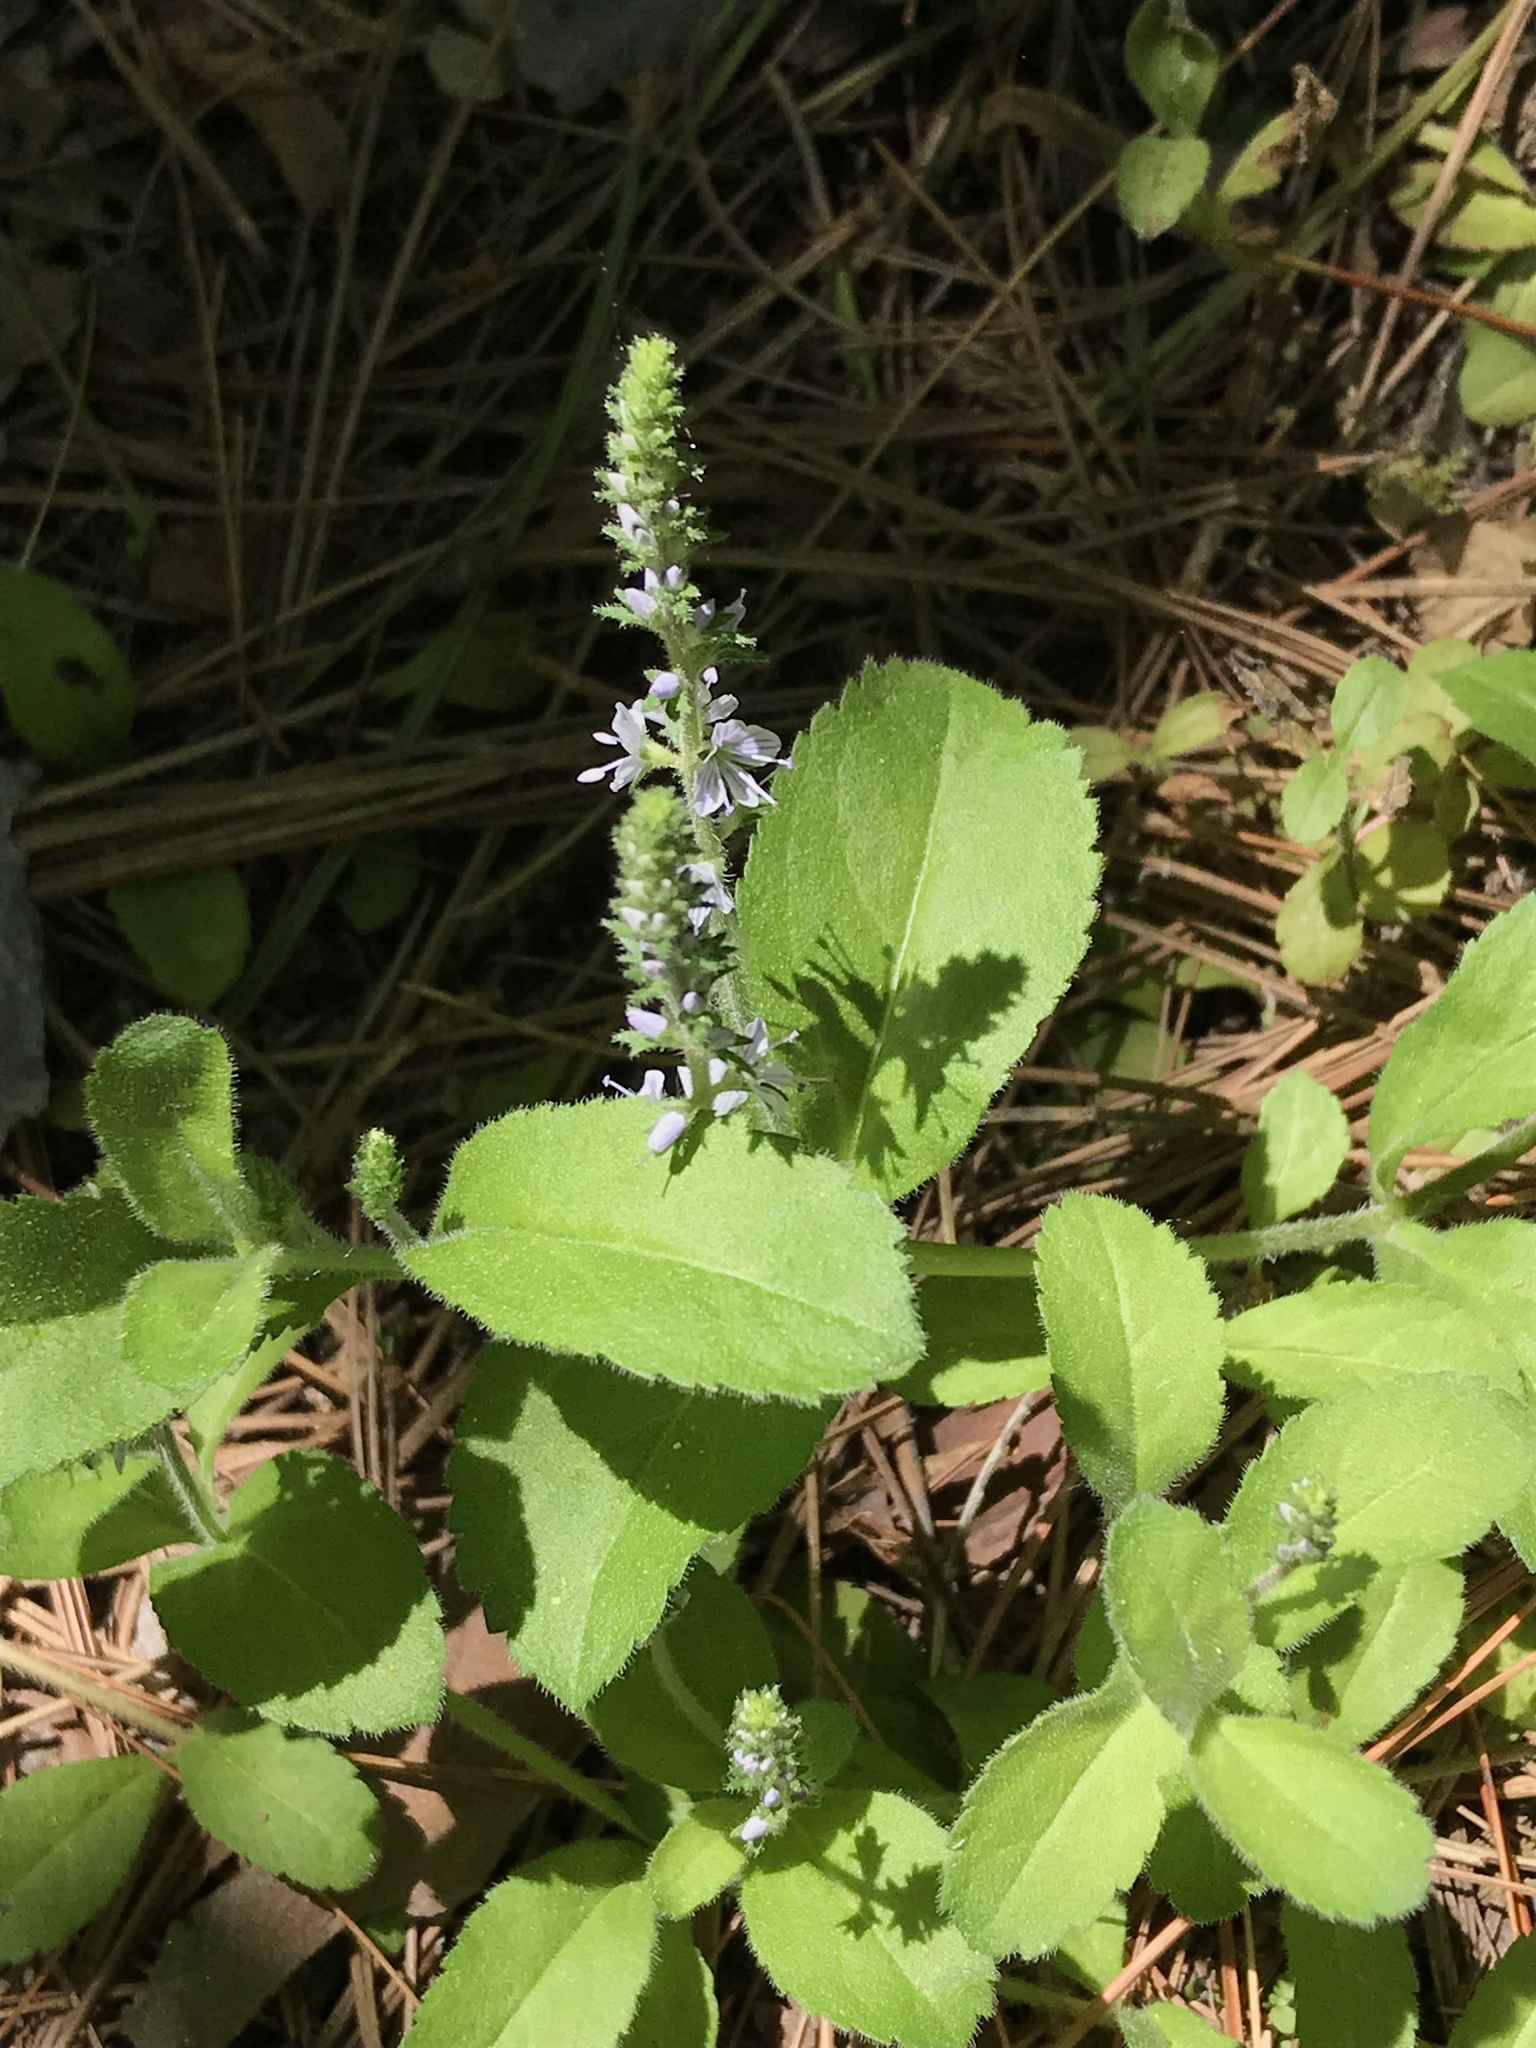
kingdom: Plantae
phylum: Tracheophyta
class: Magnoliopsida
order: Lamiales
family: Plantaginaceae
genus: Veronica
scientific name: Veronica officinalis
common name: Common speedwell
